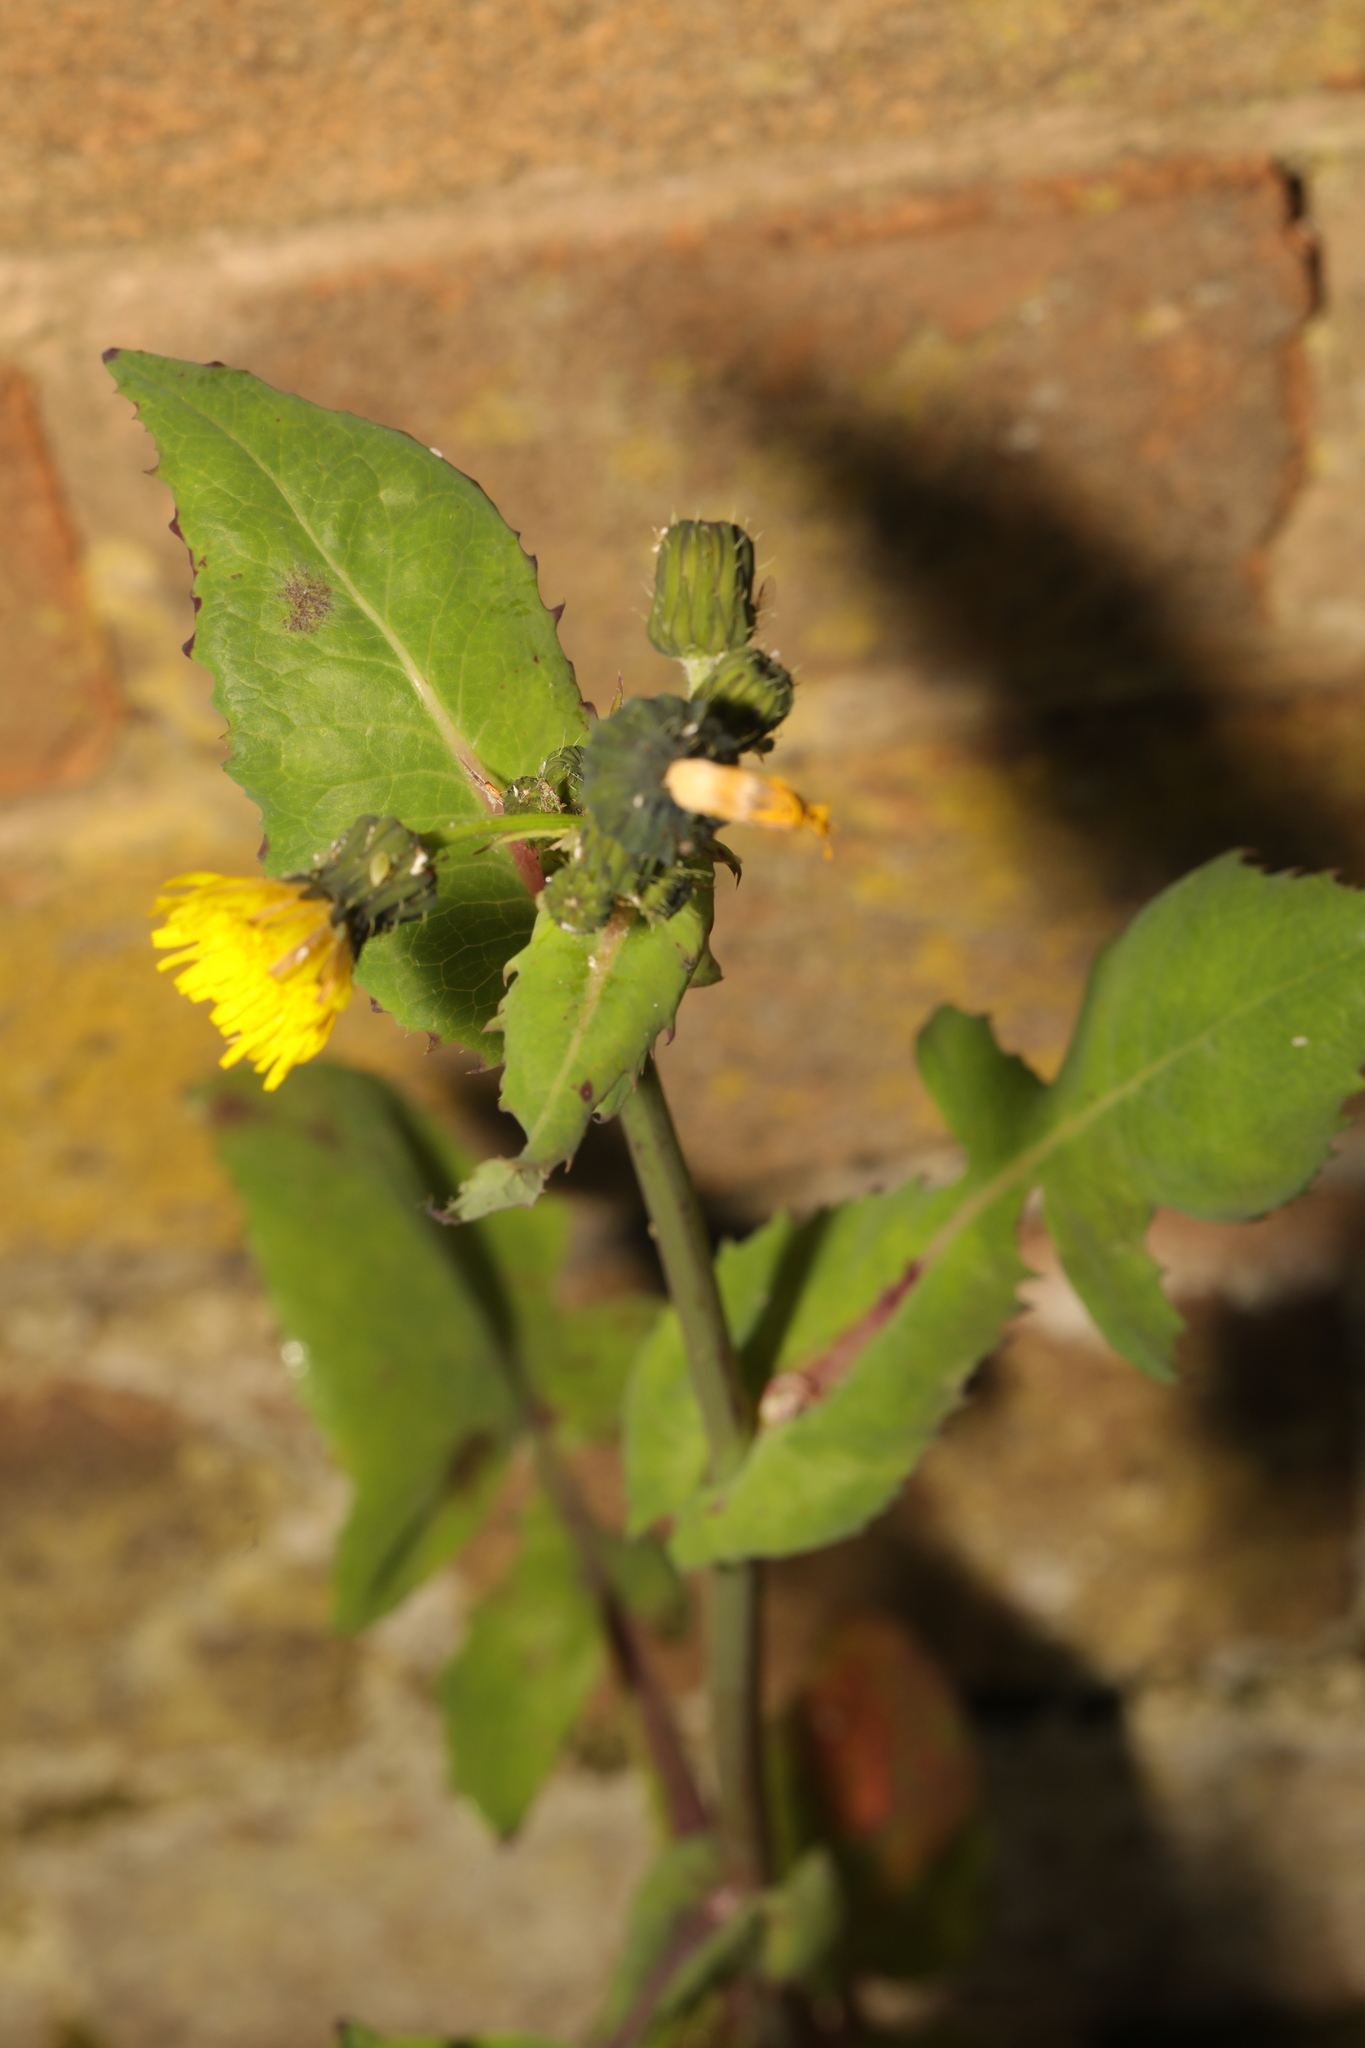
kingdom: Plantae
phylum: Tracheophyta
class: Magnoliopsida
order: Asterales
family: Asteraceae
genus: Sonchus
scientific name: Sonchus oleraceus
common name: Common sowthistle
